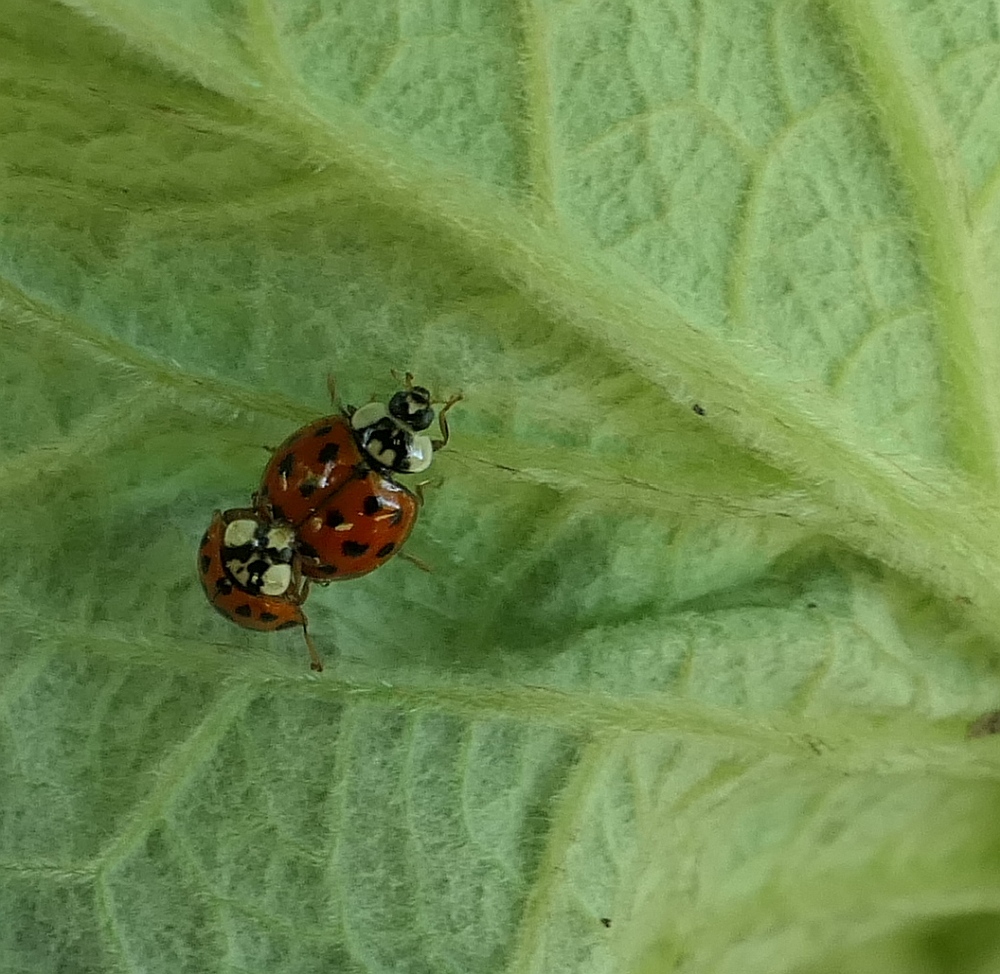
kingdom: Animalia
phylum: Arthropoda
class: Insecta
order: Coleoptera
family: Coccinellidae
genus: Harmonia
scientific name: Harmonia axyridis
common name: Harlequin ladybird
